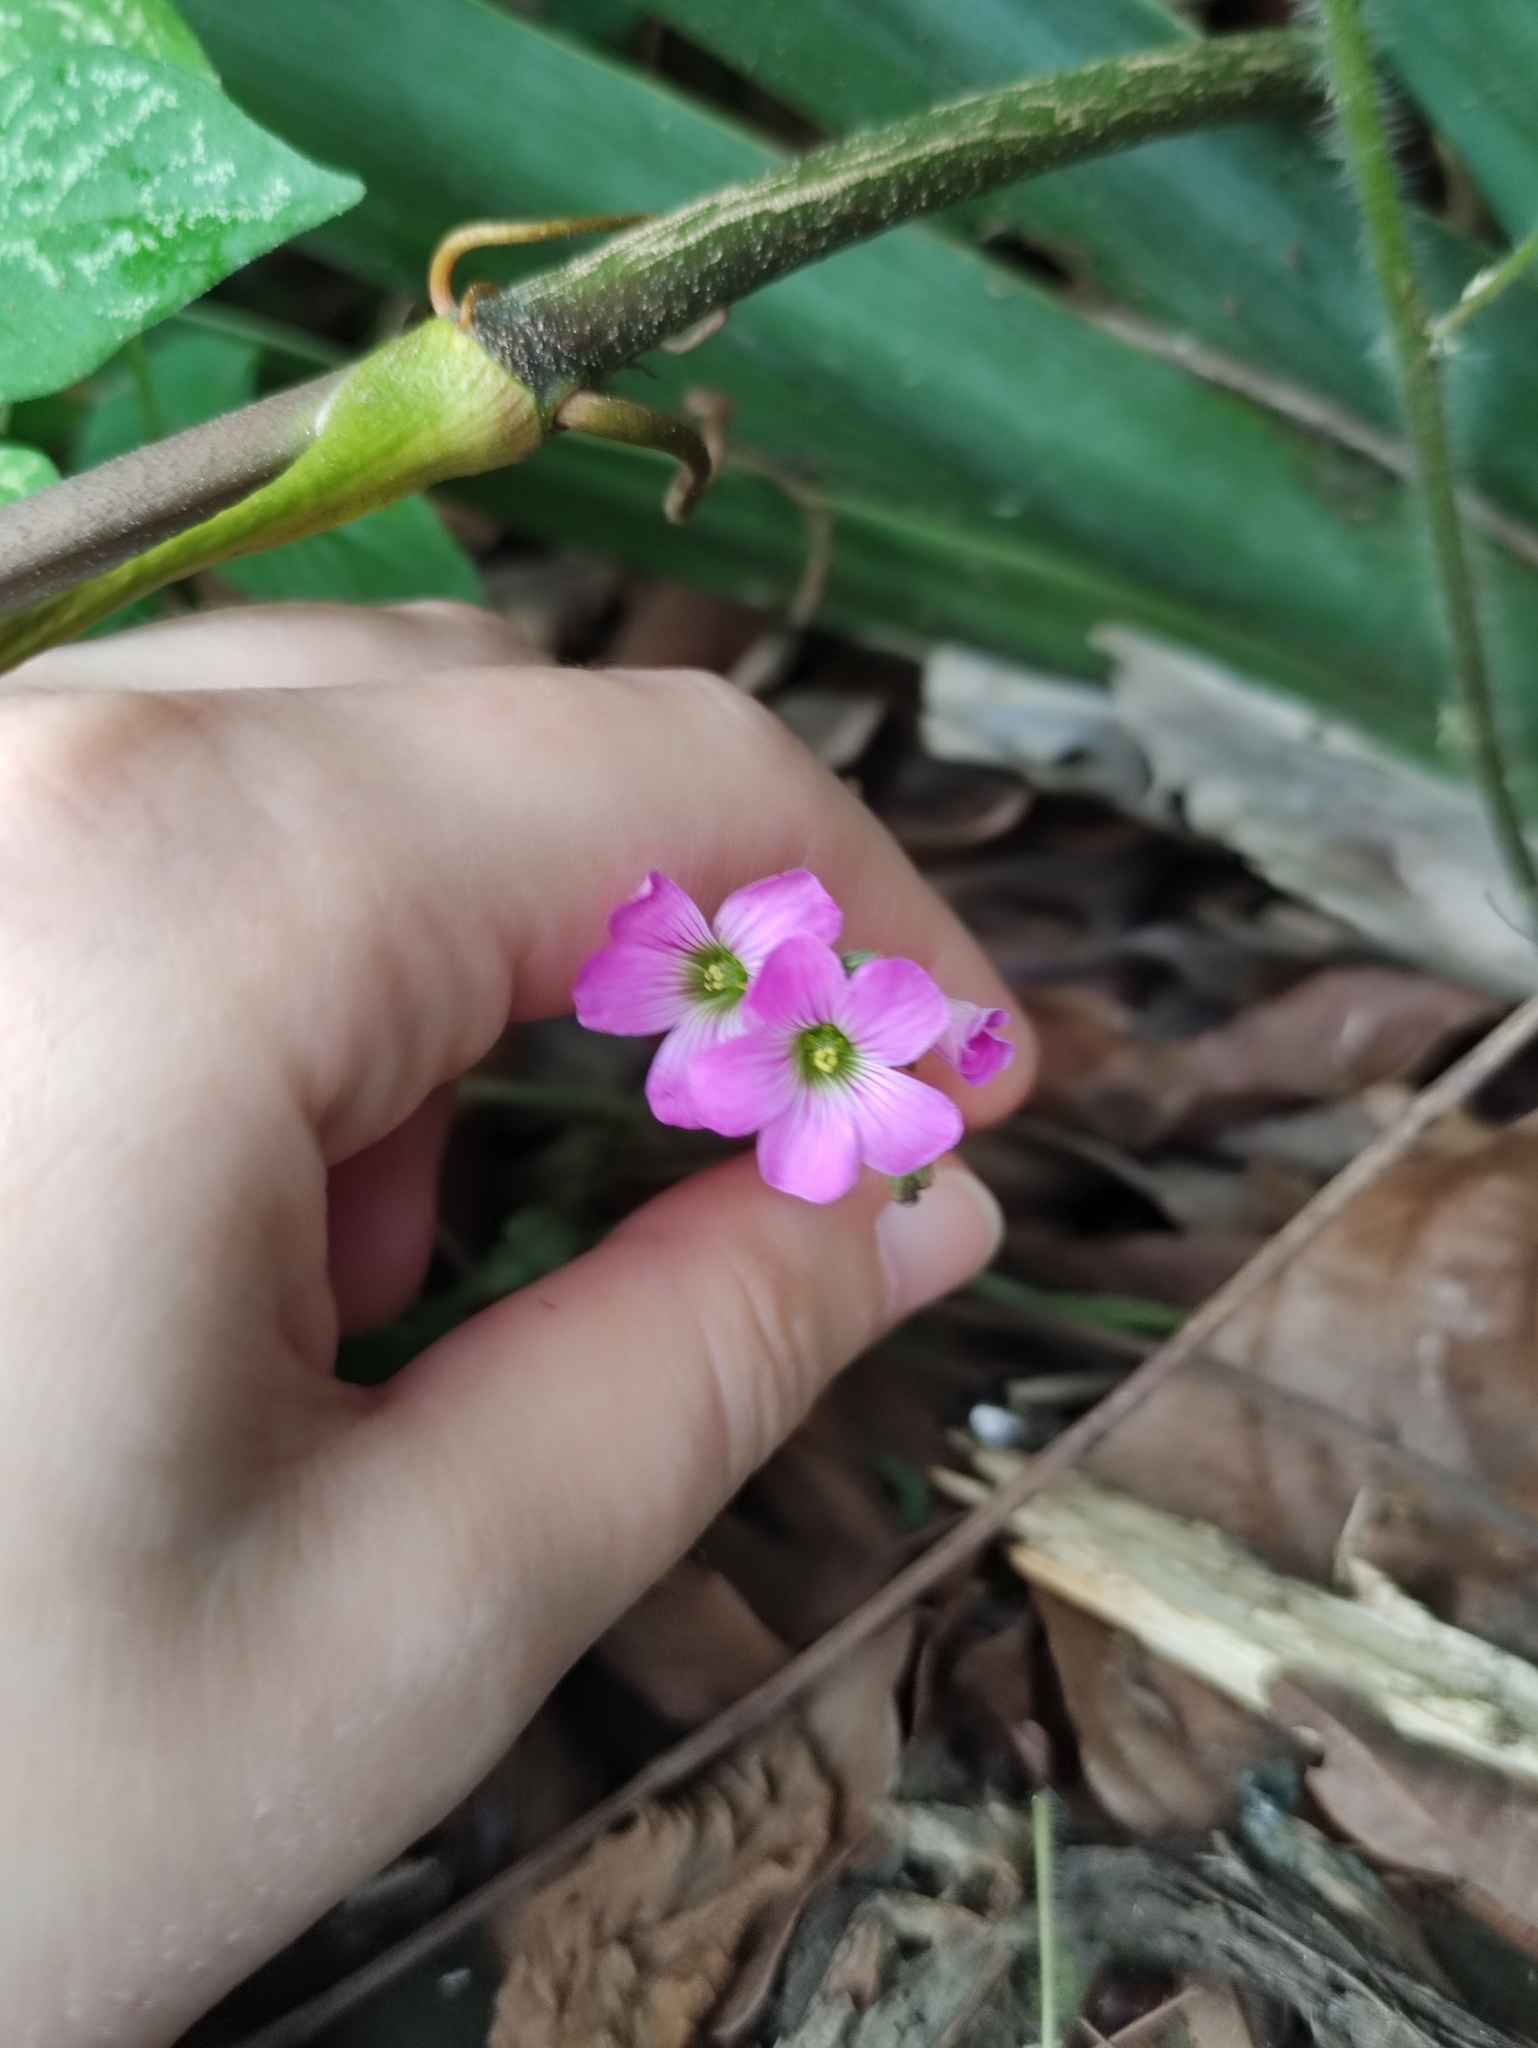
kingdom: Plantae
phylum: Tracheophyta
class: Magnoliopsida
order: Oxalidales
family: Oxalidaceae
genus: Oxalis
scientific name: Oxalis debilis
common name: Large-flowered pink-sorrel
